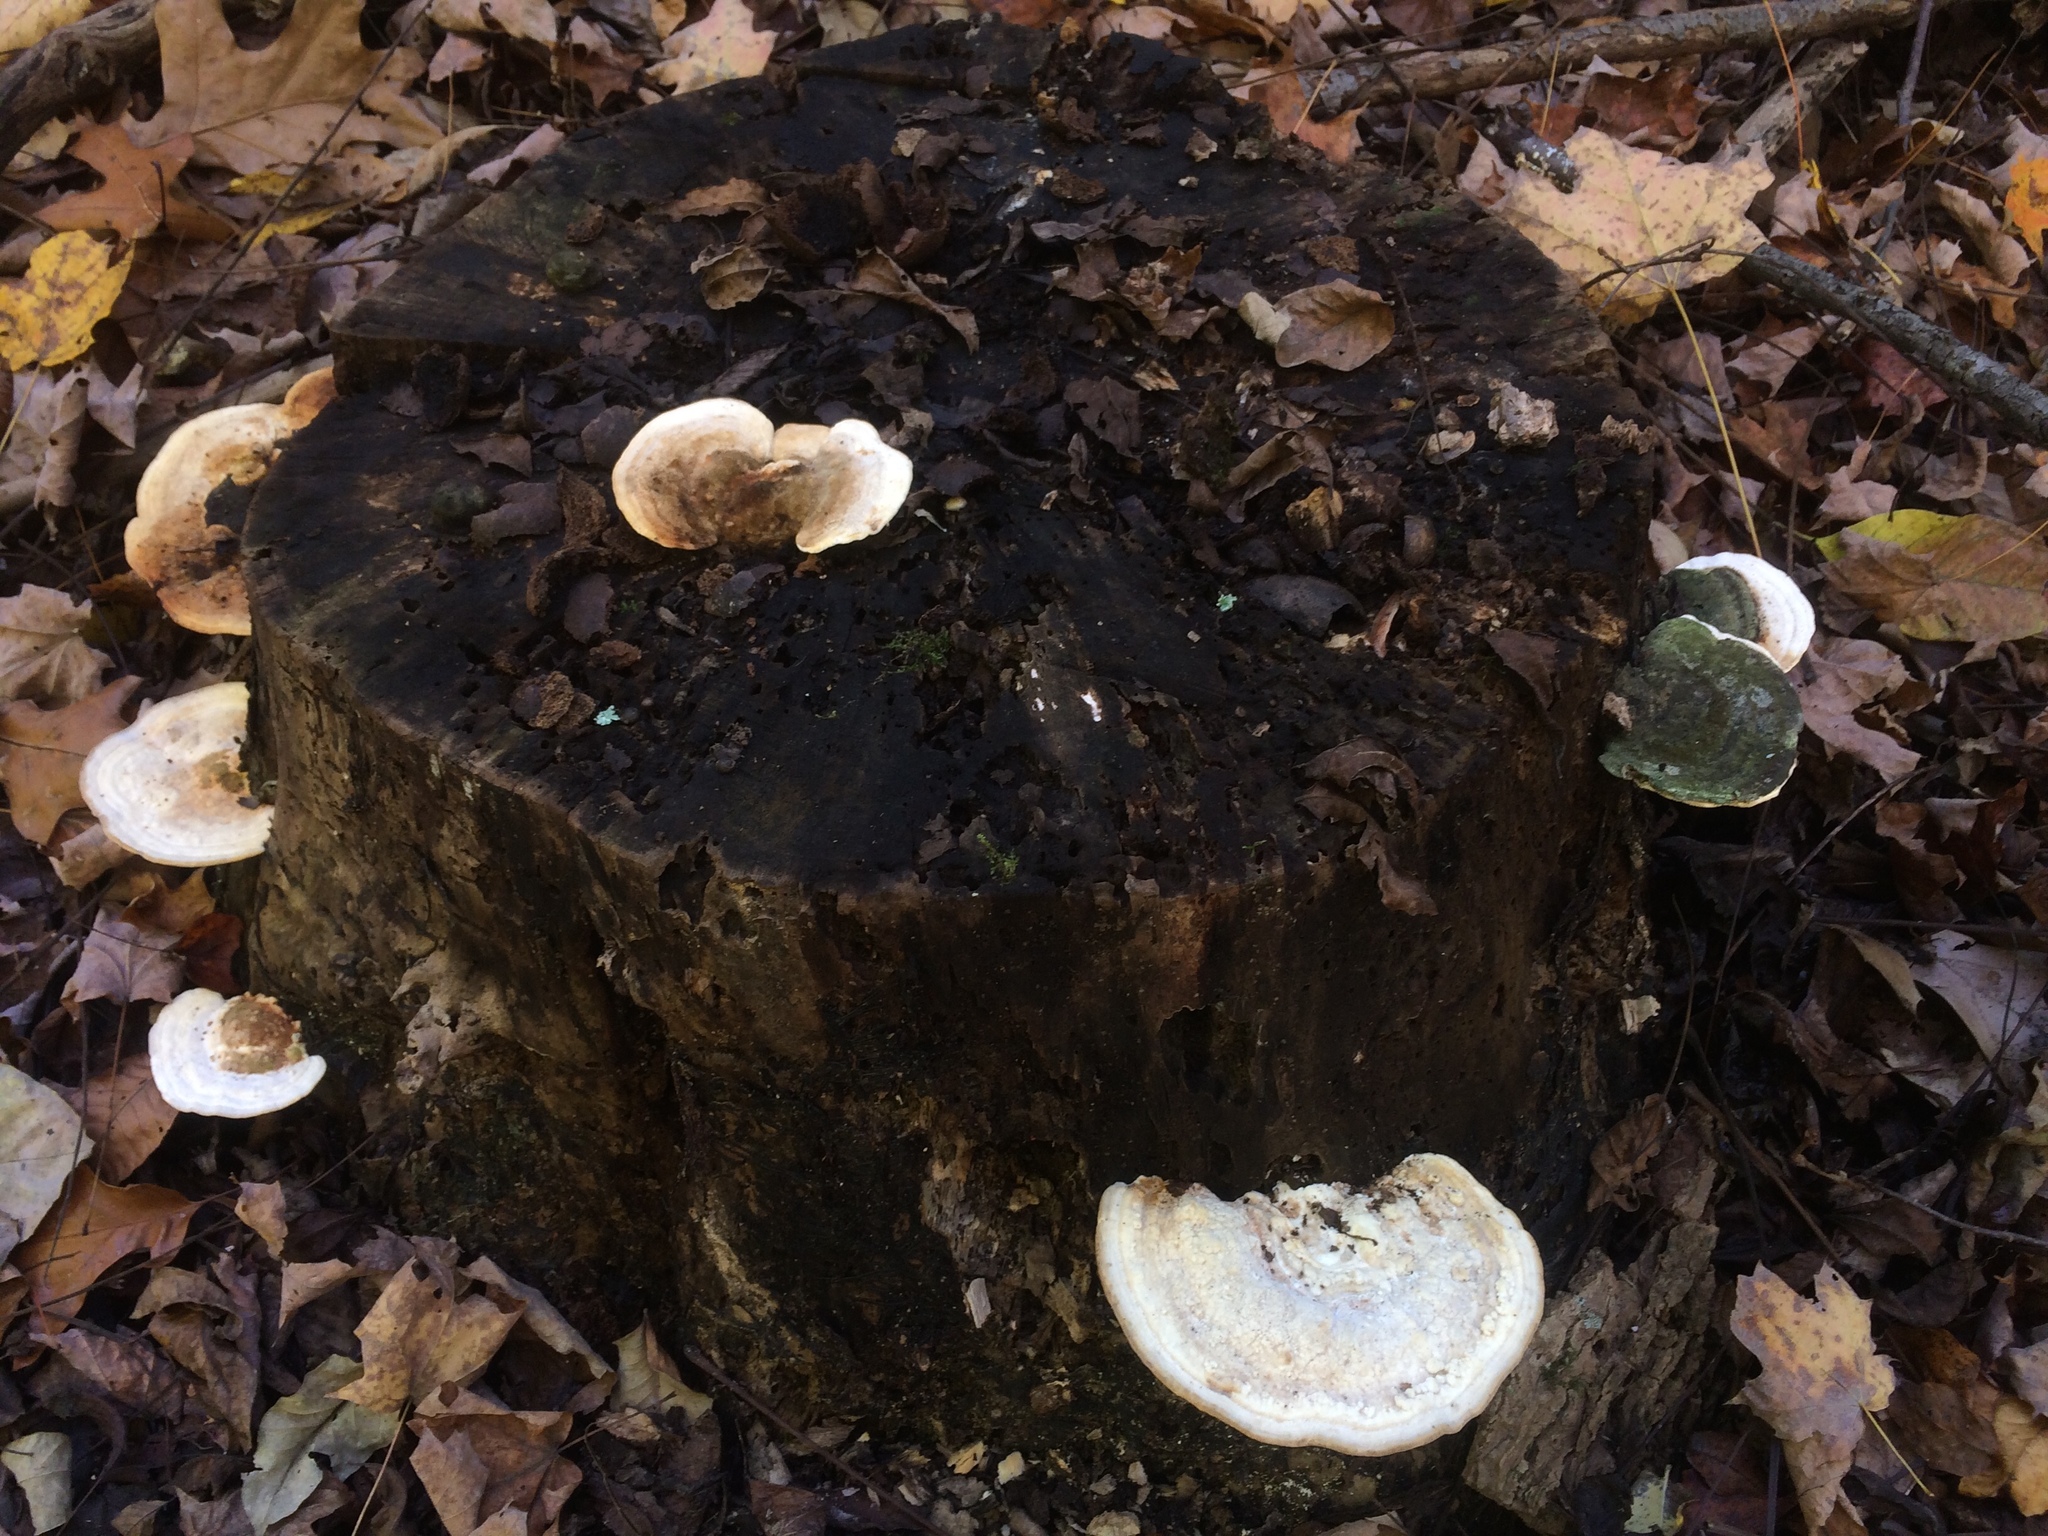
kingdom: Fungi
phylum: Basidiomycota
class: Agaricomycetes
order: Polyporales
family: Polyporaceae
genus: Trametes
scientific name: Trametes gibbosa
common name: Lumpy bracket
